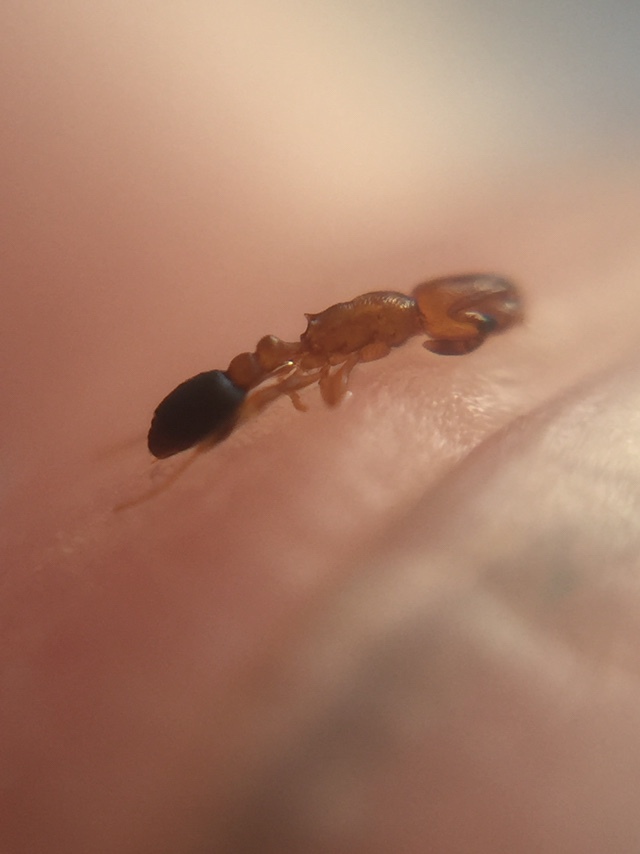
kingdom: Animalia
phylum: Arthropoda
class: Insecta
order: Hymenoptera
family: Formicidae
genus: Cardiocondyla
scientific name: Cardiocondyla minutior
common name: Ant
